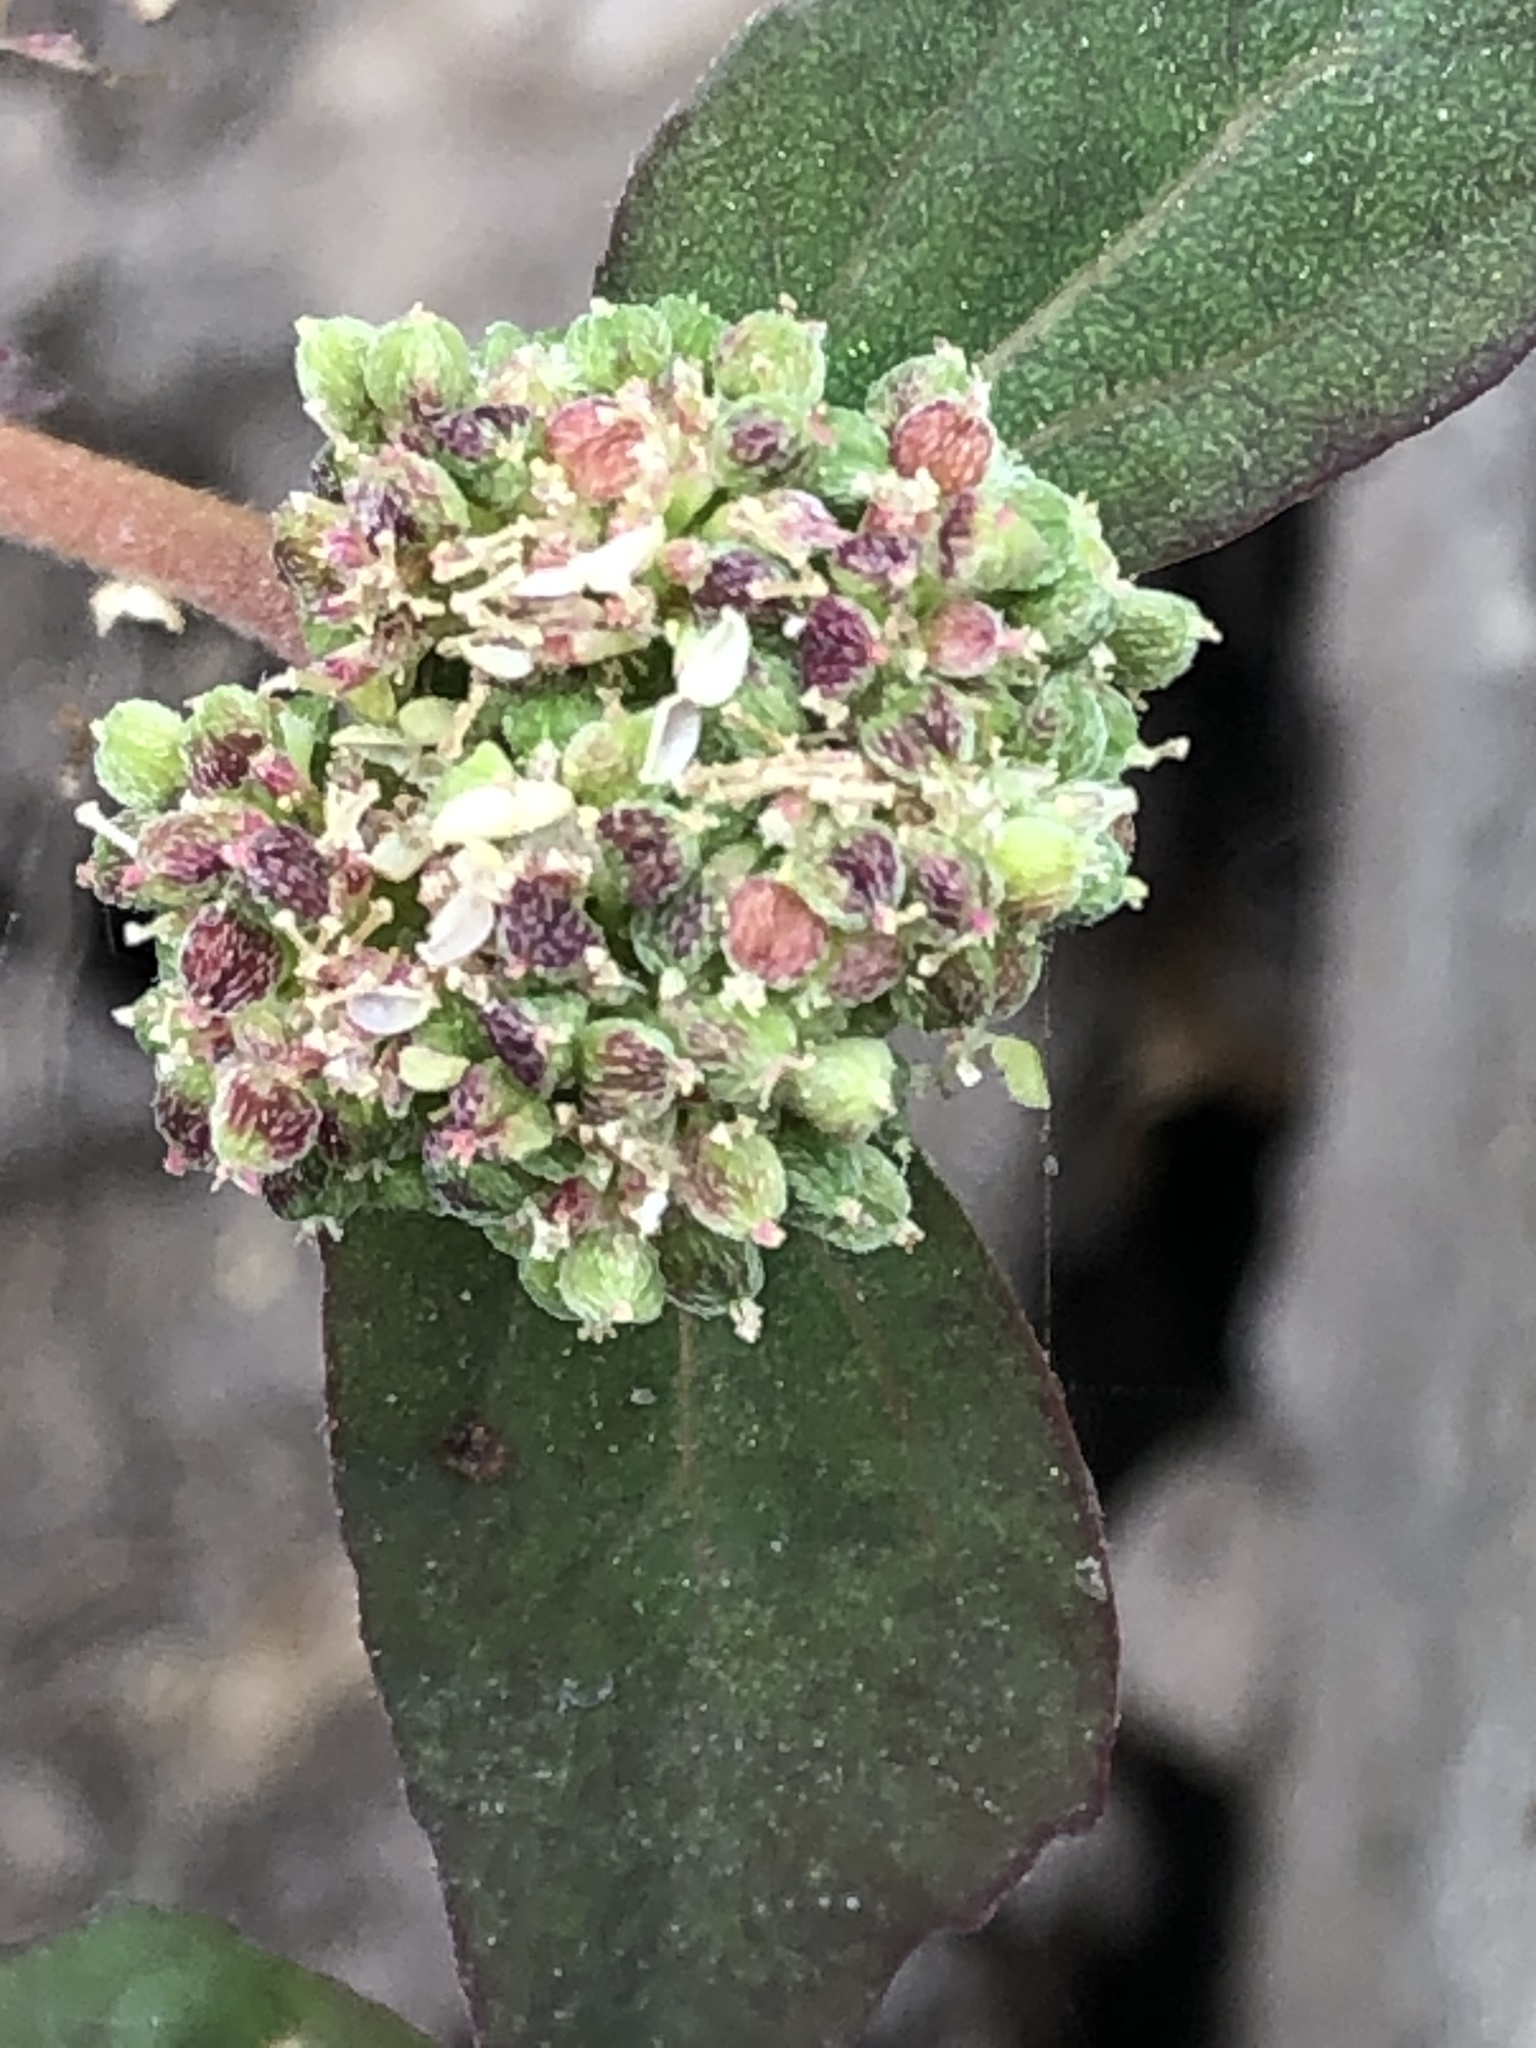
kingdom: Plantae
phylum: Tracheophyta
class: Magnoliopsida
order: Malpighiales
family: Euphorbiaceae
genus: Euphorbia
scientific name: Euphorbia ophthalmica
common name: Florida hammock sandmat
